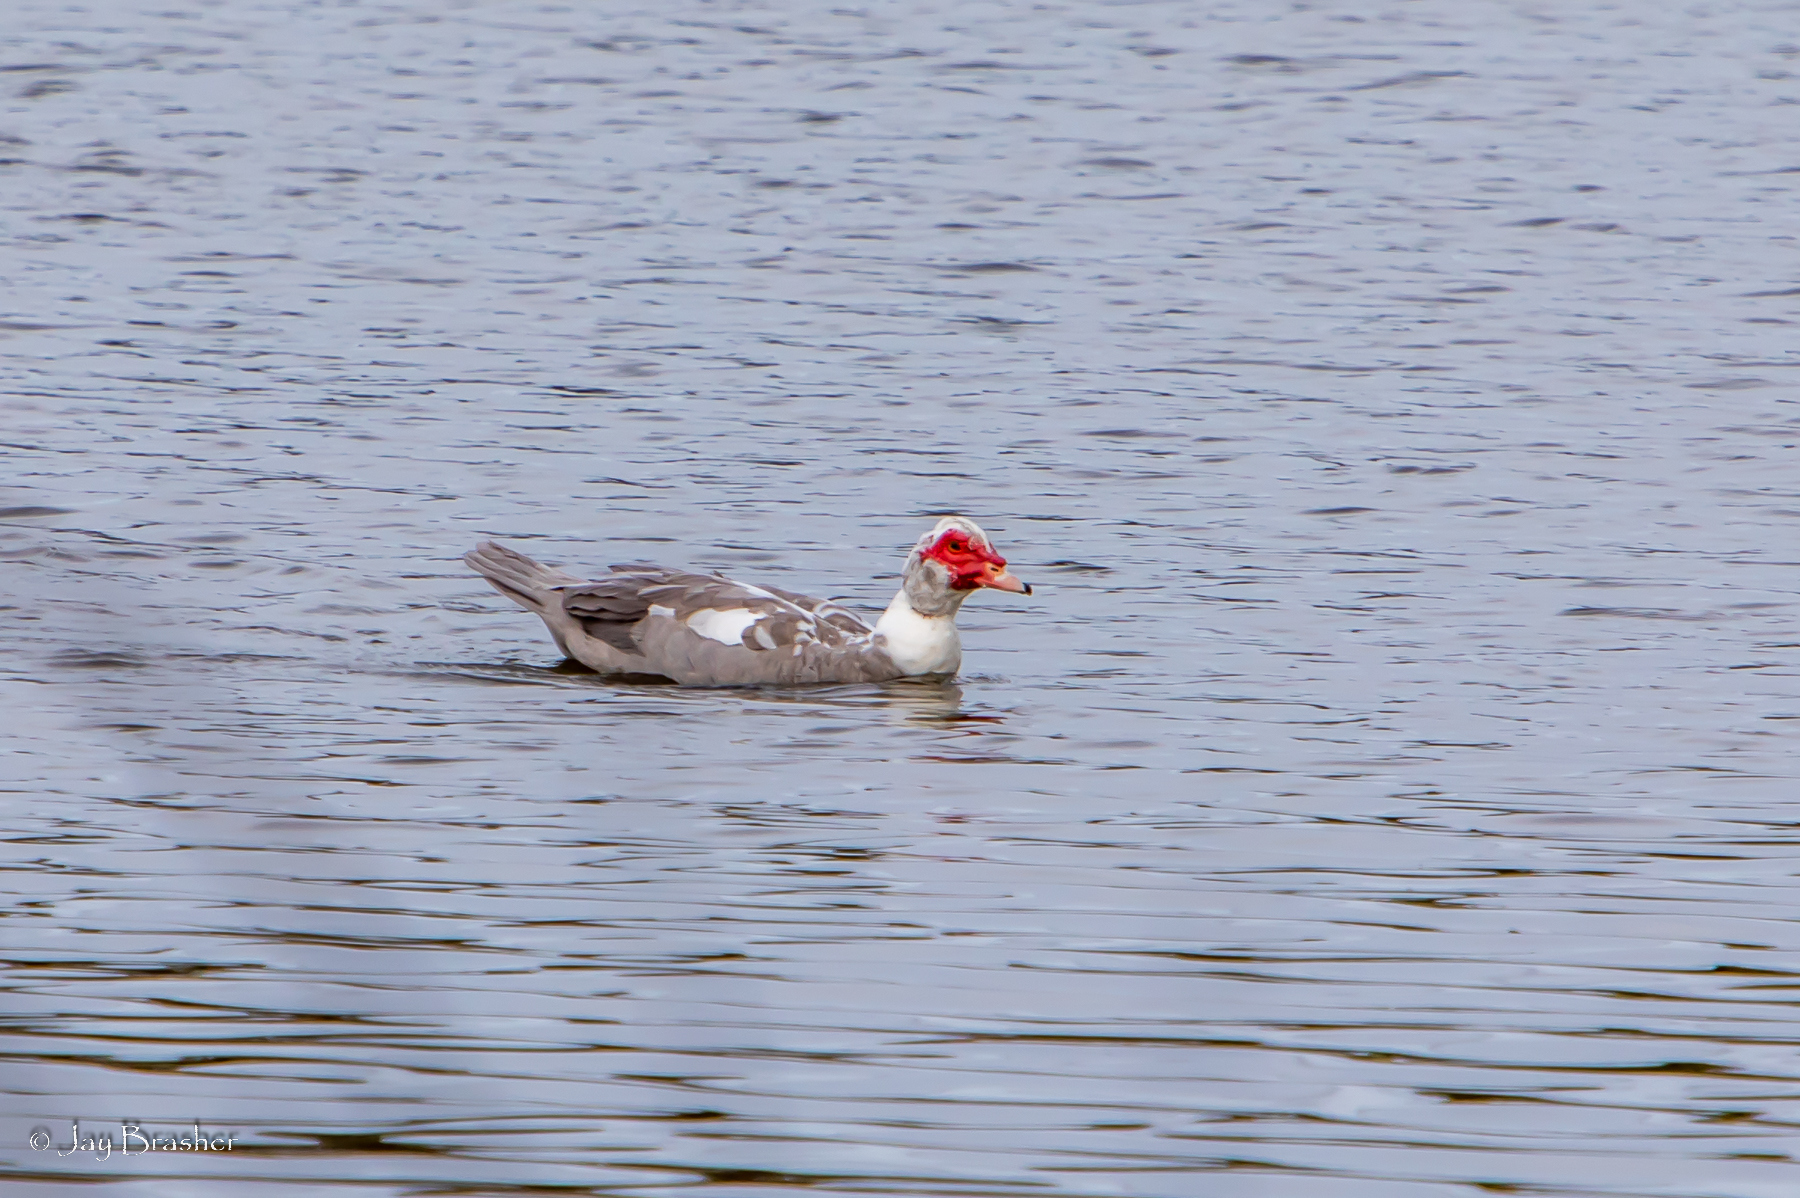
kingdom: Animalia
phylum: Chordata
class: Aves
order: Anseriformes
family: Anatidae
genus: Cairina
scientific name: Cairina moschata
